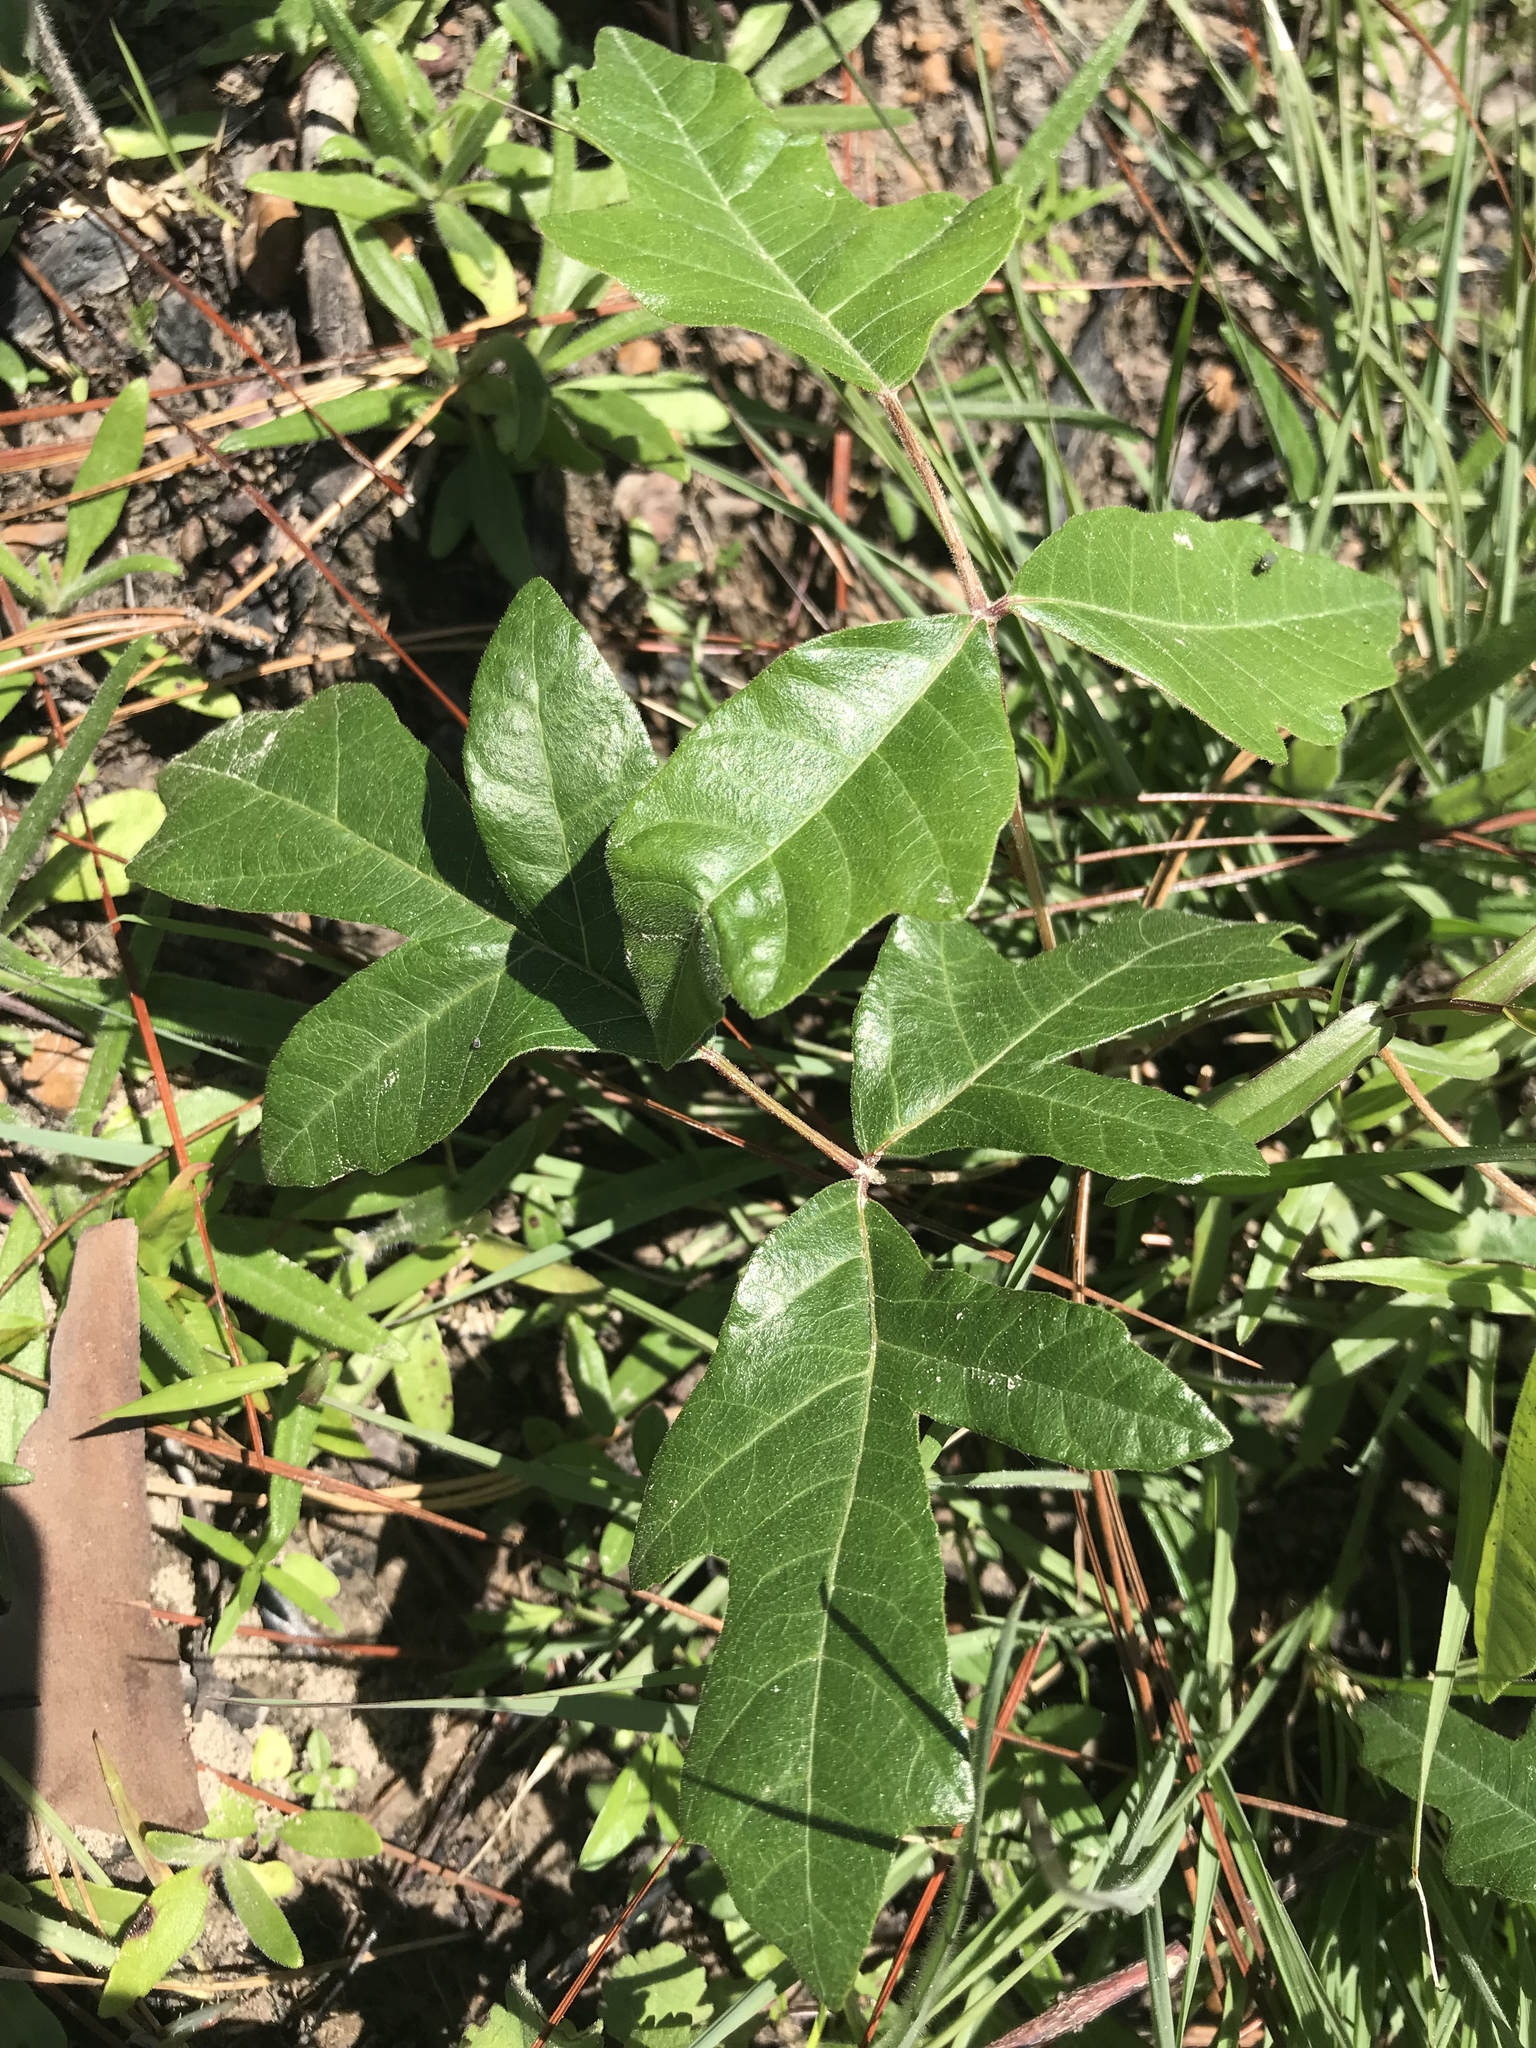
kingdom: Plantae
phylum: Tracheophyta
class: Magnoliopsida
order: Sapindales
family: Anacardiaceae
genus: Toxicodendron
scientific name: Toxicodendron pubescens
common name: Eastern poison-oak
